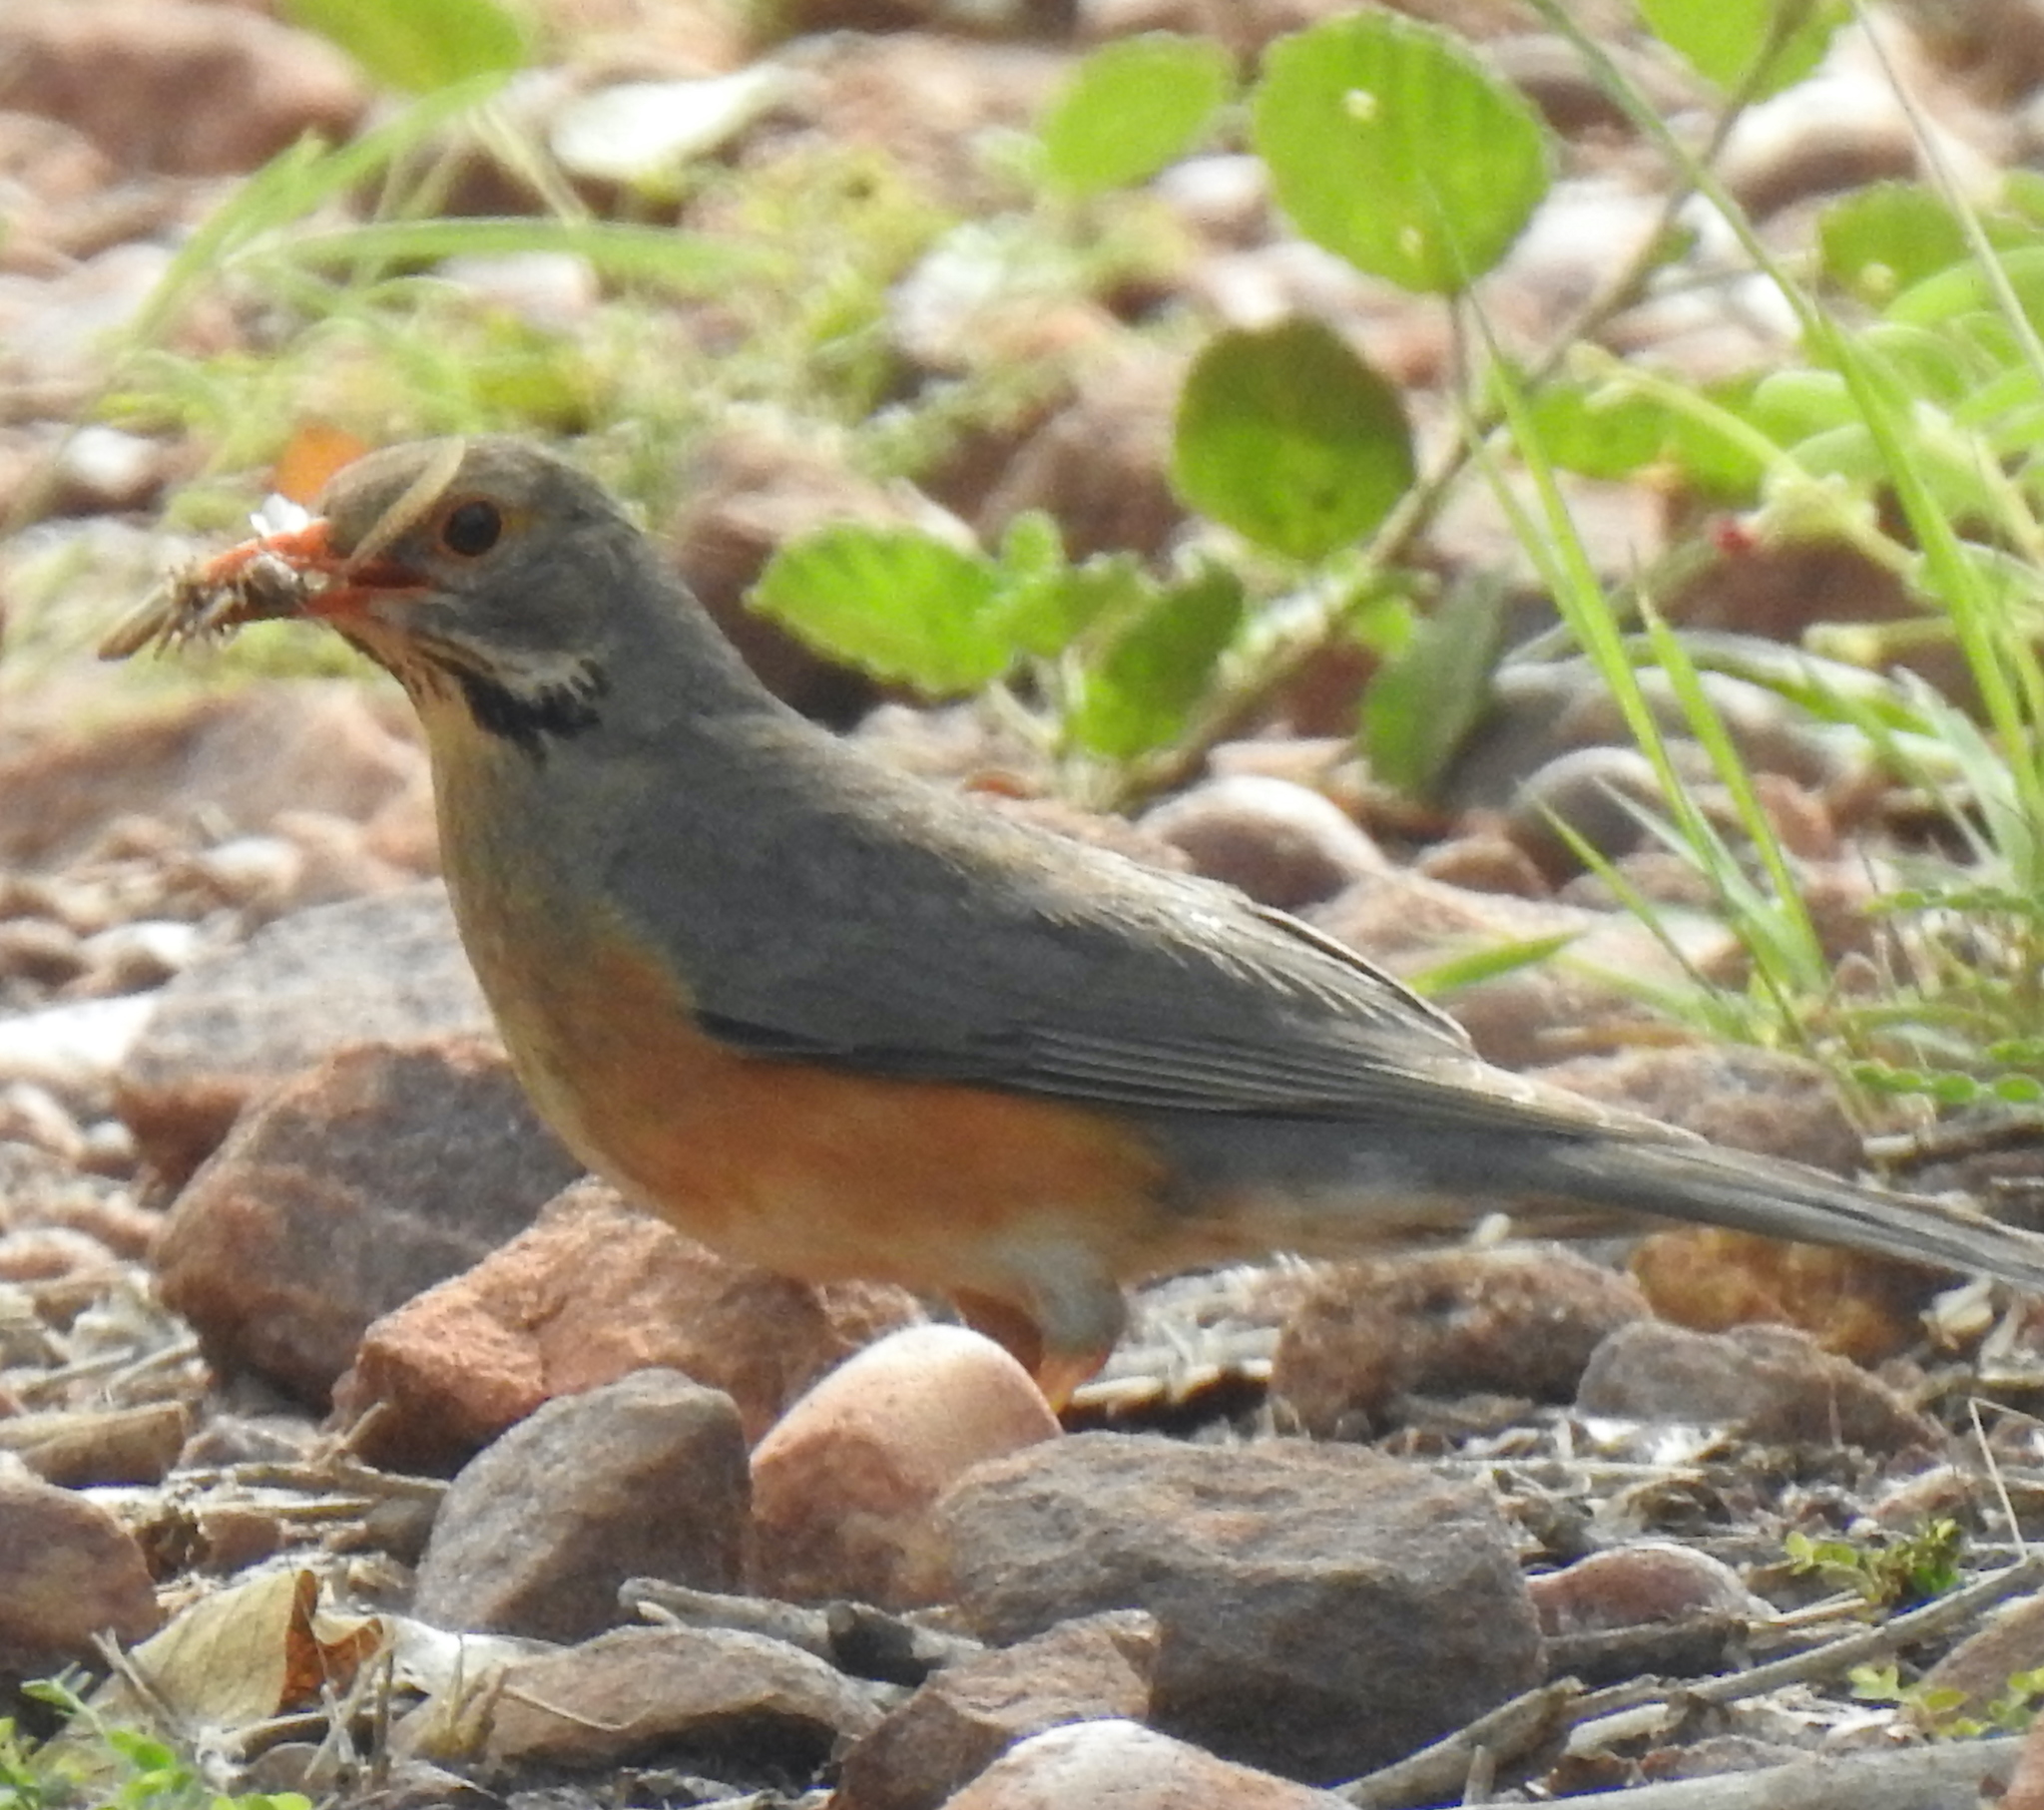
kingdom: Animalia
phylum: Chordata
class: Aves
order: Passeriformes
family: Turdidae
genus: Turdus
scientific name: Turdus libonyana
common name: Kurrichane thrush
